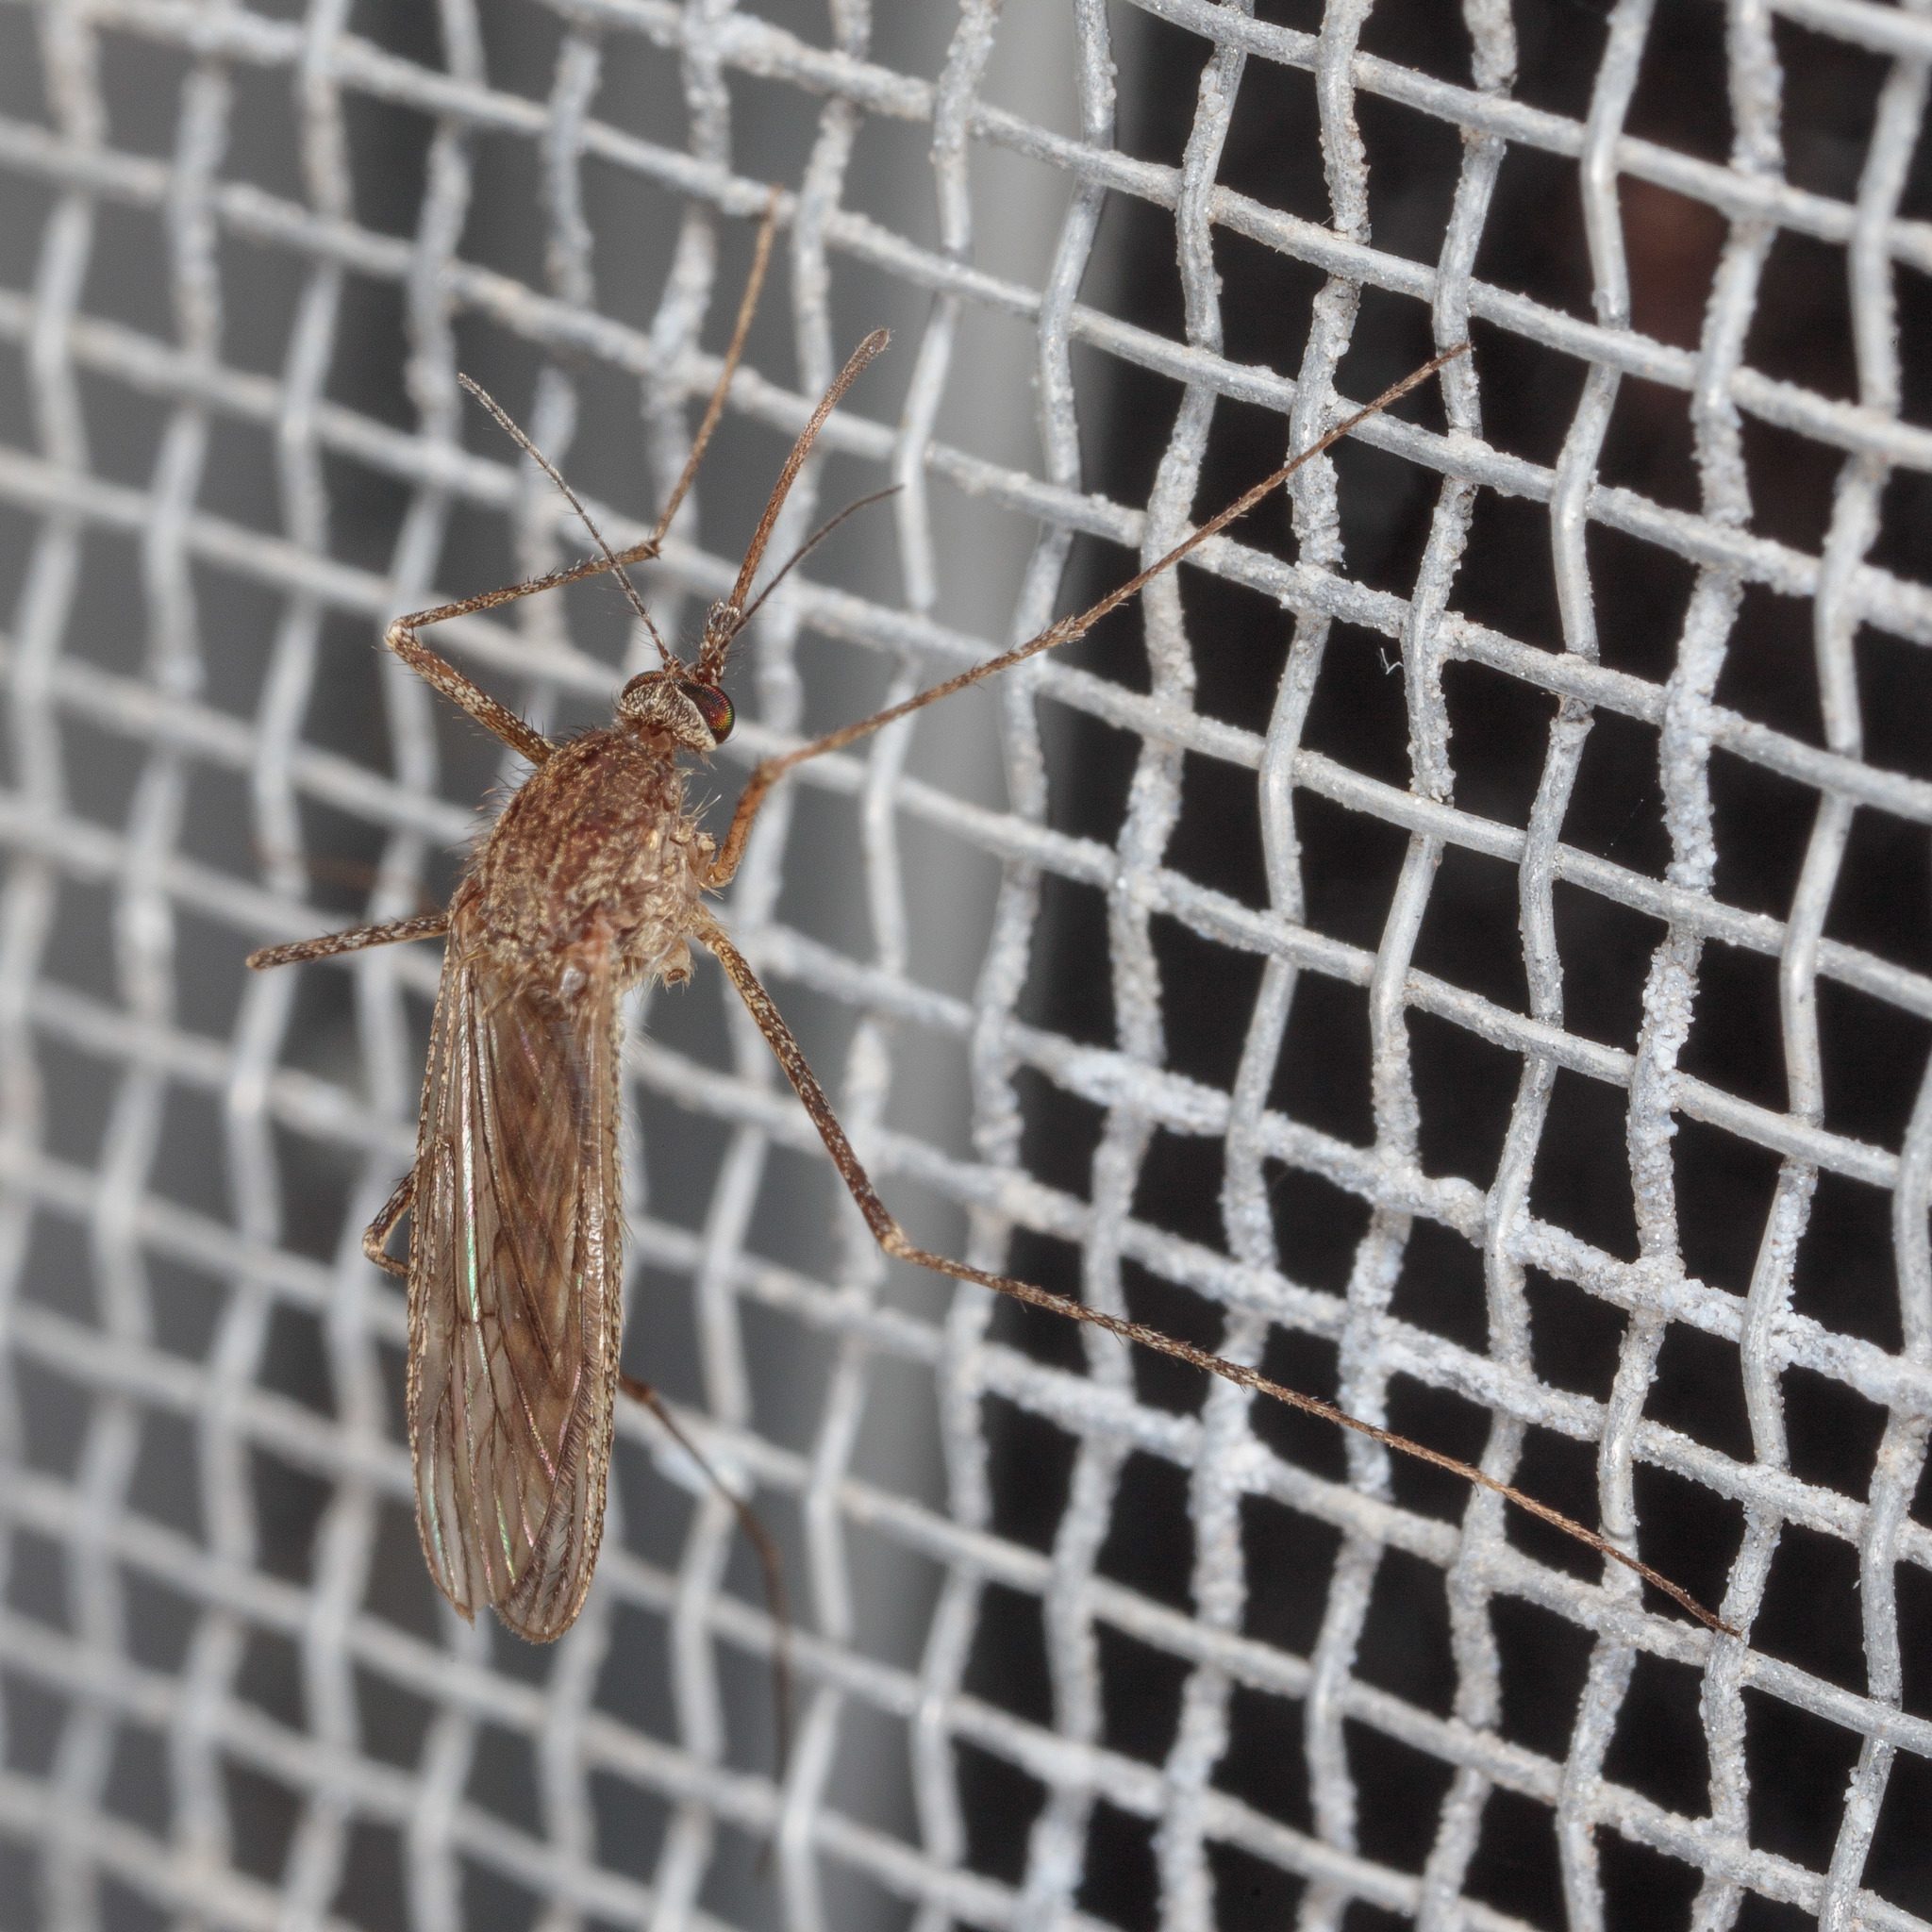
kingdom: Animalia
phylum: Arthropoda
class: Insecta
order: Diptera
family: Culicidae
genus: Culiseta
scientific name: Culiseta inornata
